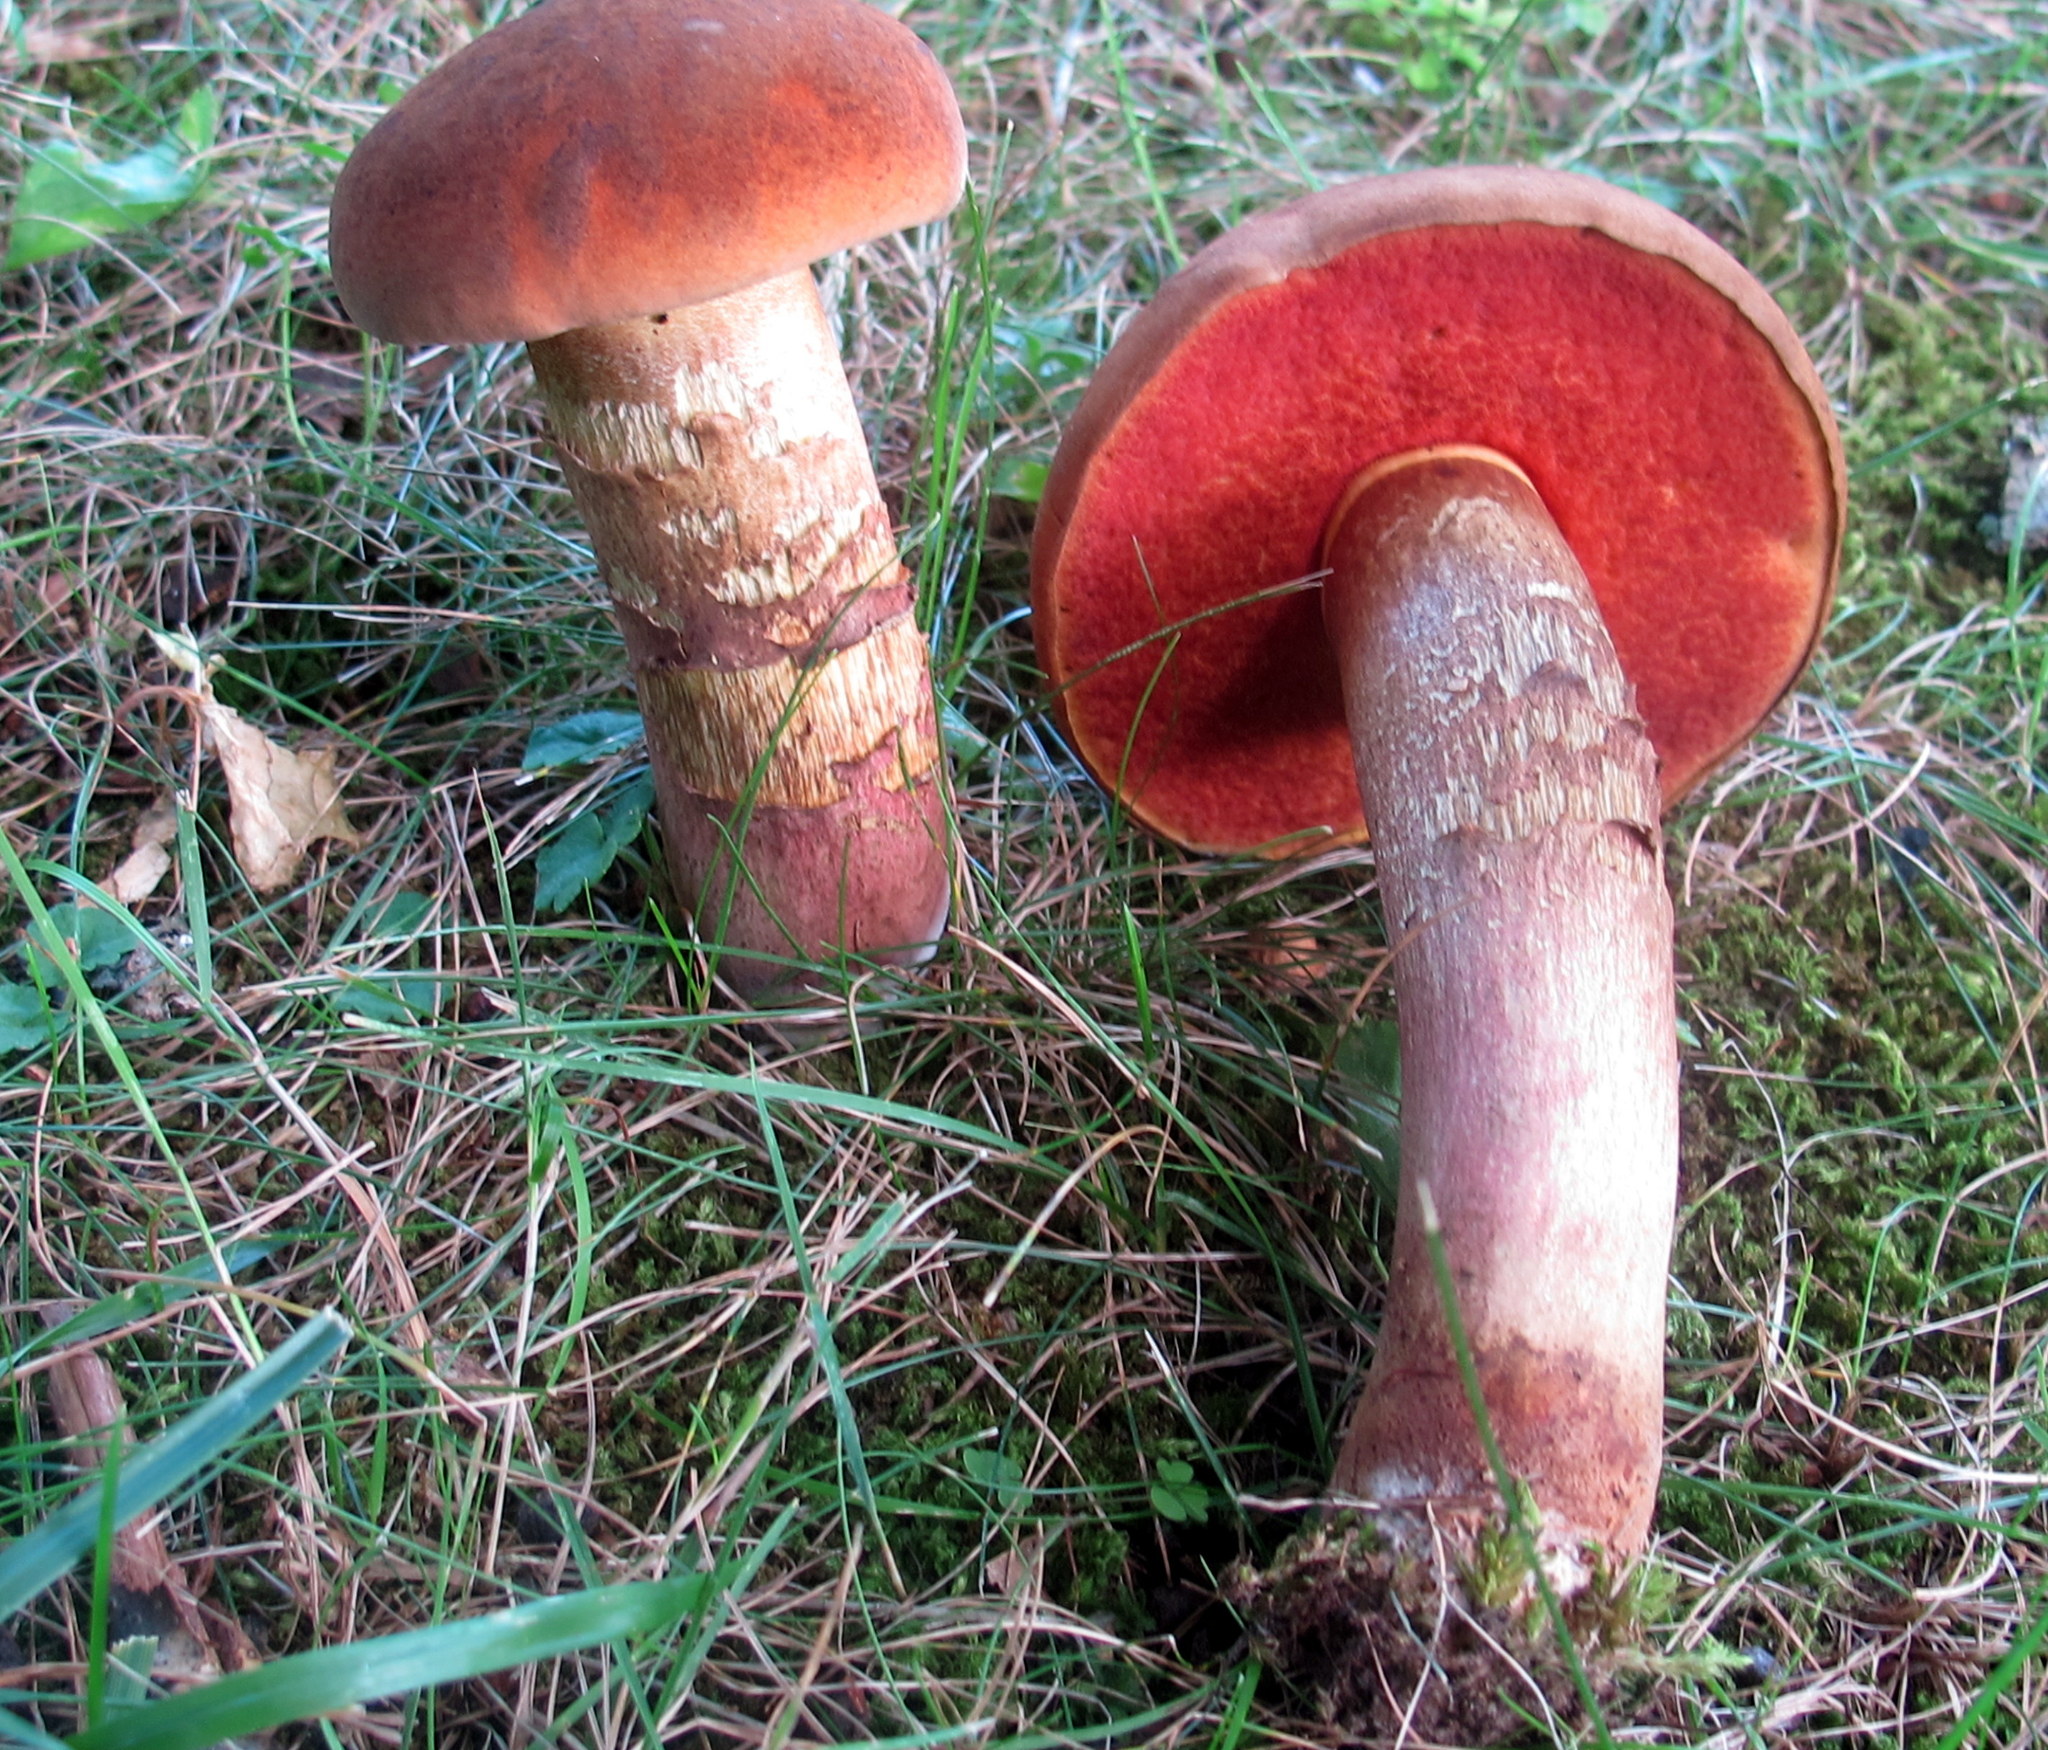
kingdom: Fungi
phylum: Basidiomycota
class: Agaricomycetes
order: Boletales
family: Boletaceae
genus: Boletus
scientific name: Boletus subvelutipes
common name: Red-mouth bolete
